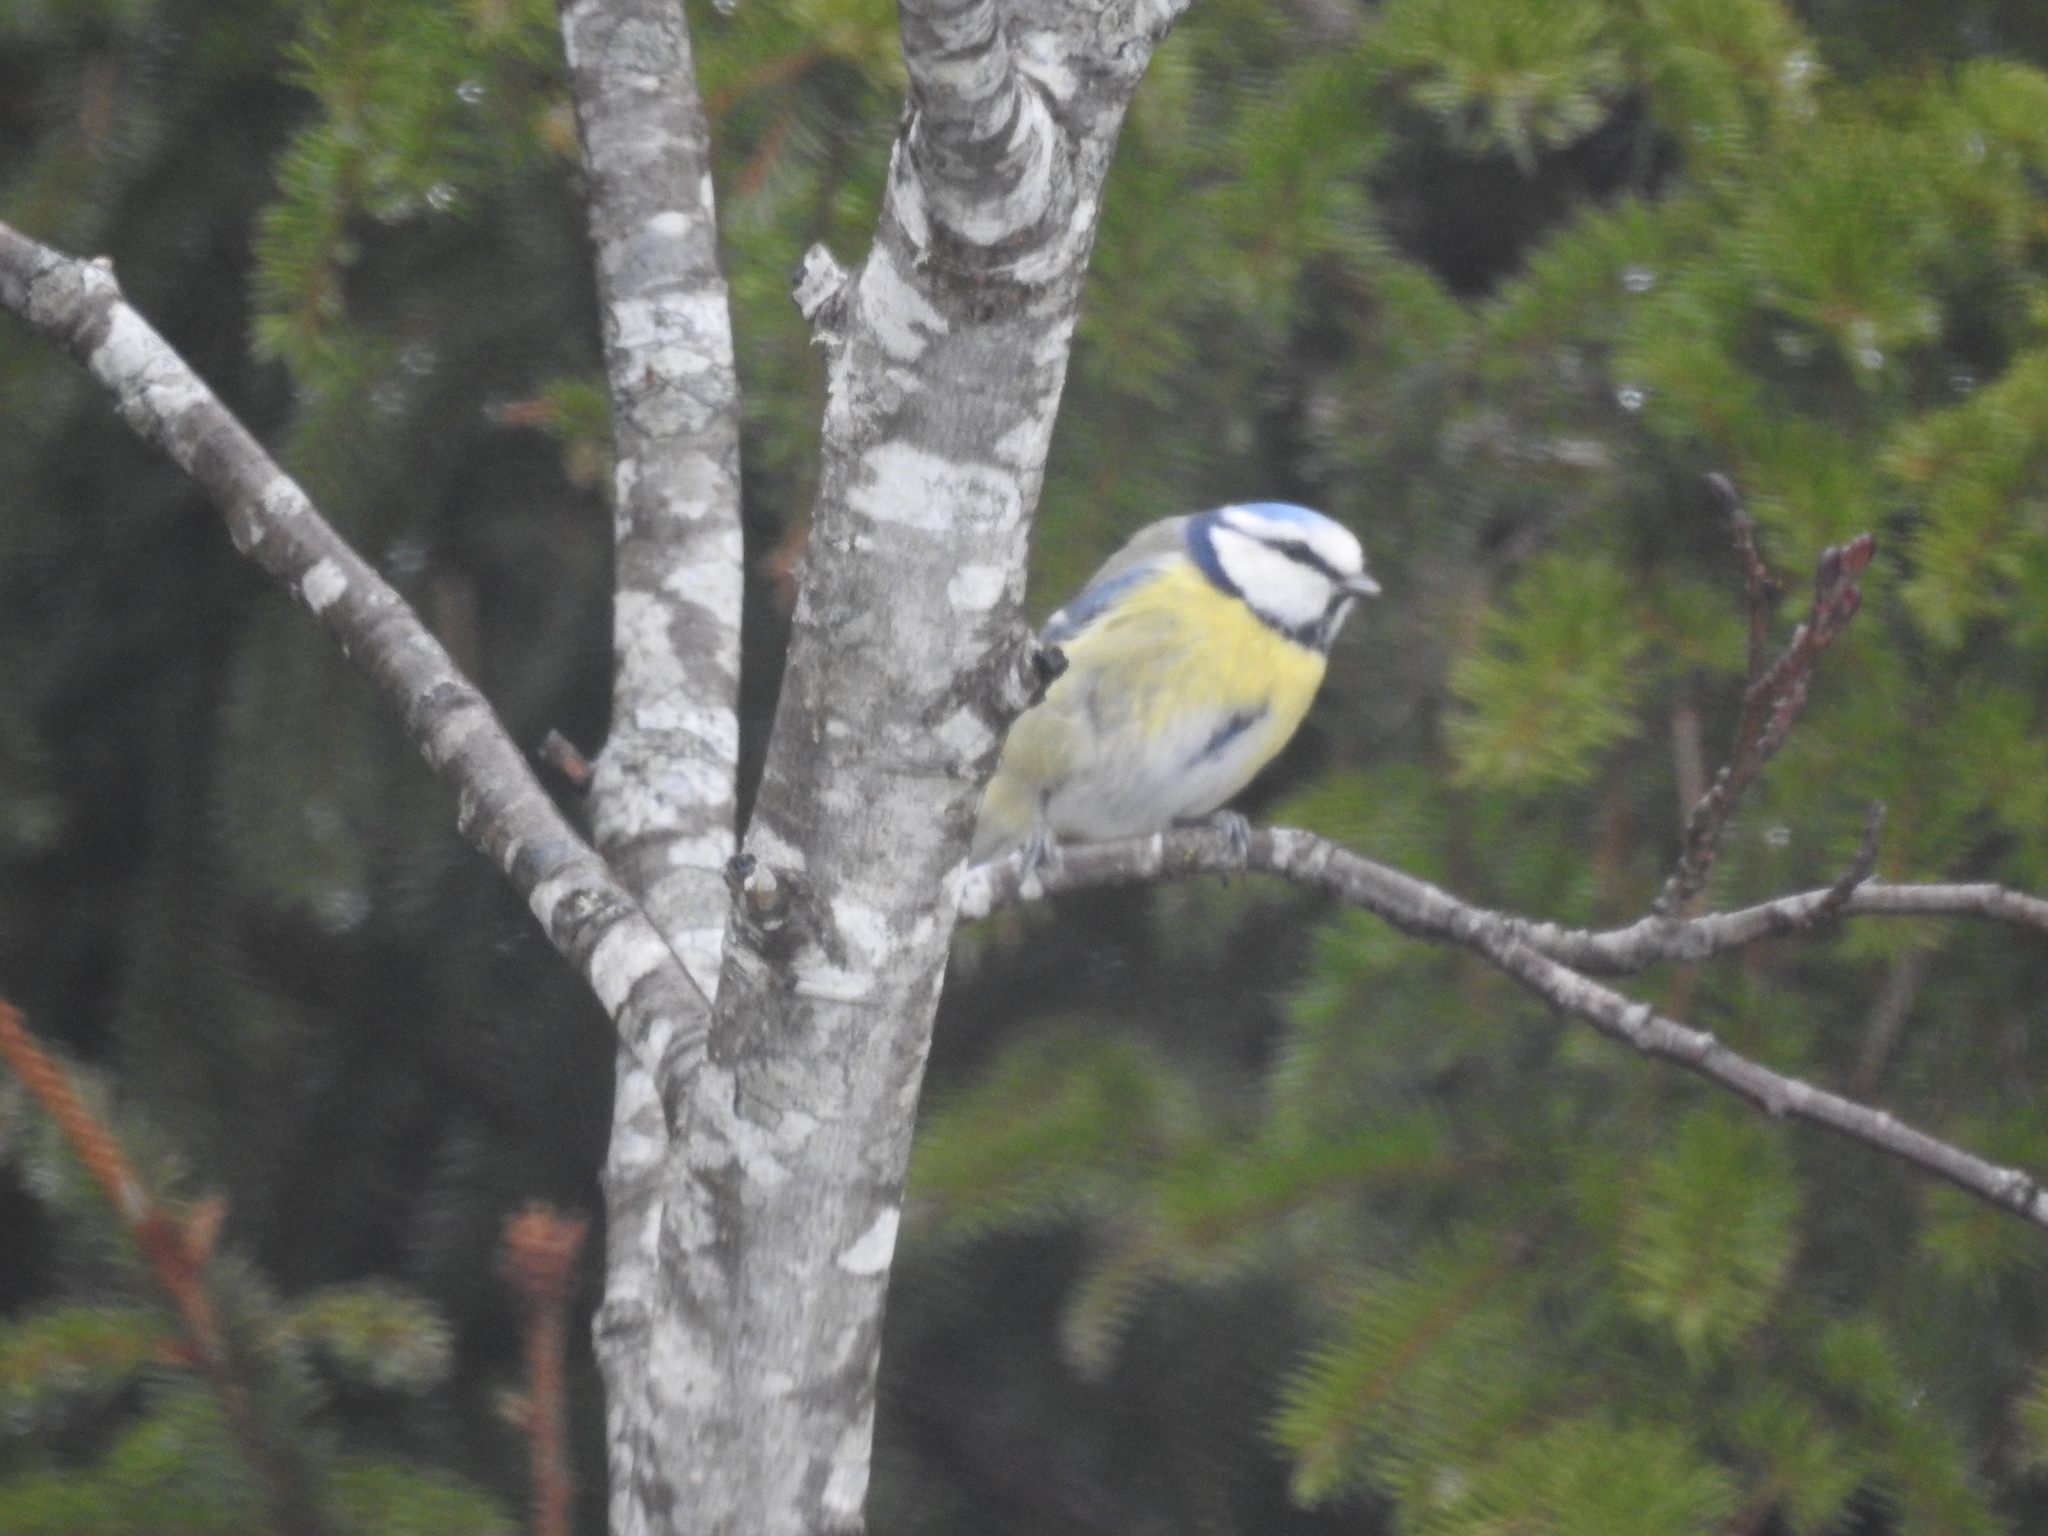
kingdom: Animalia
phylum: Chordata
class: Aves
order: Passeriformes
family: Paridae
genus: Cyanistes
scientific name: Cyanistes caeruleus
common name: Eurasian blue tit
